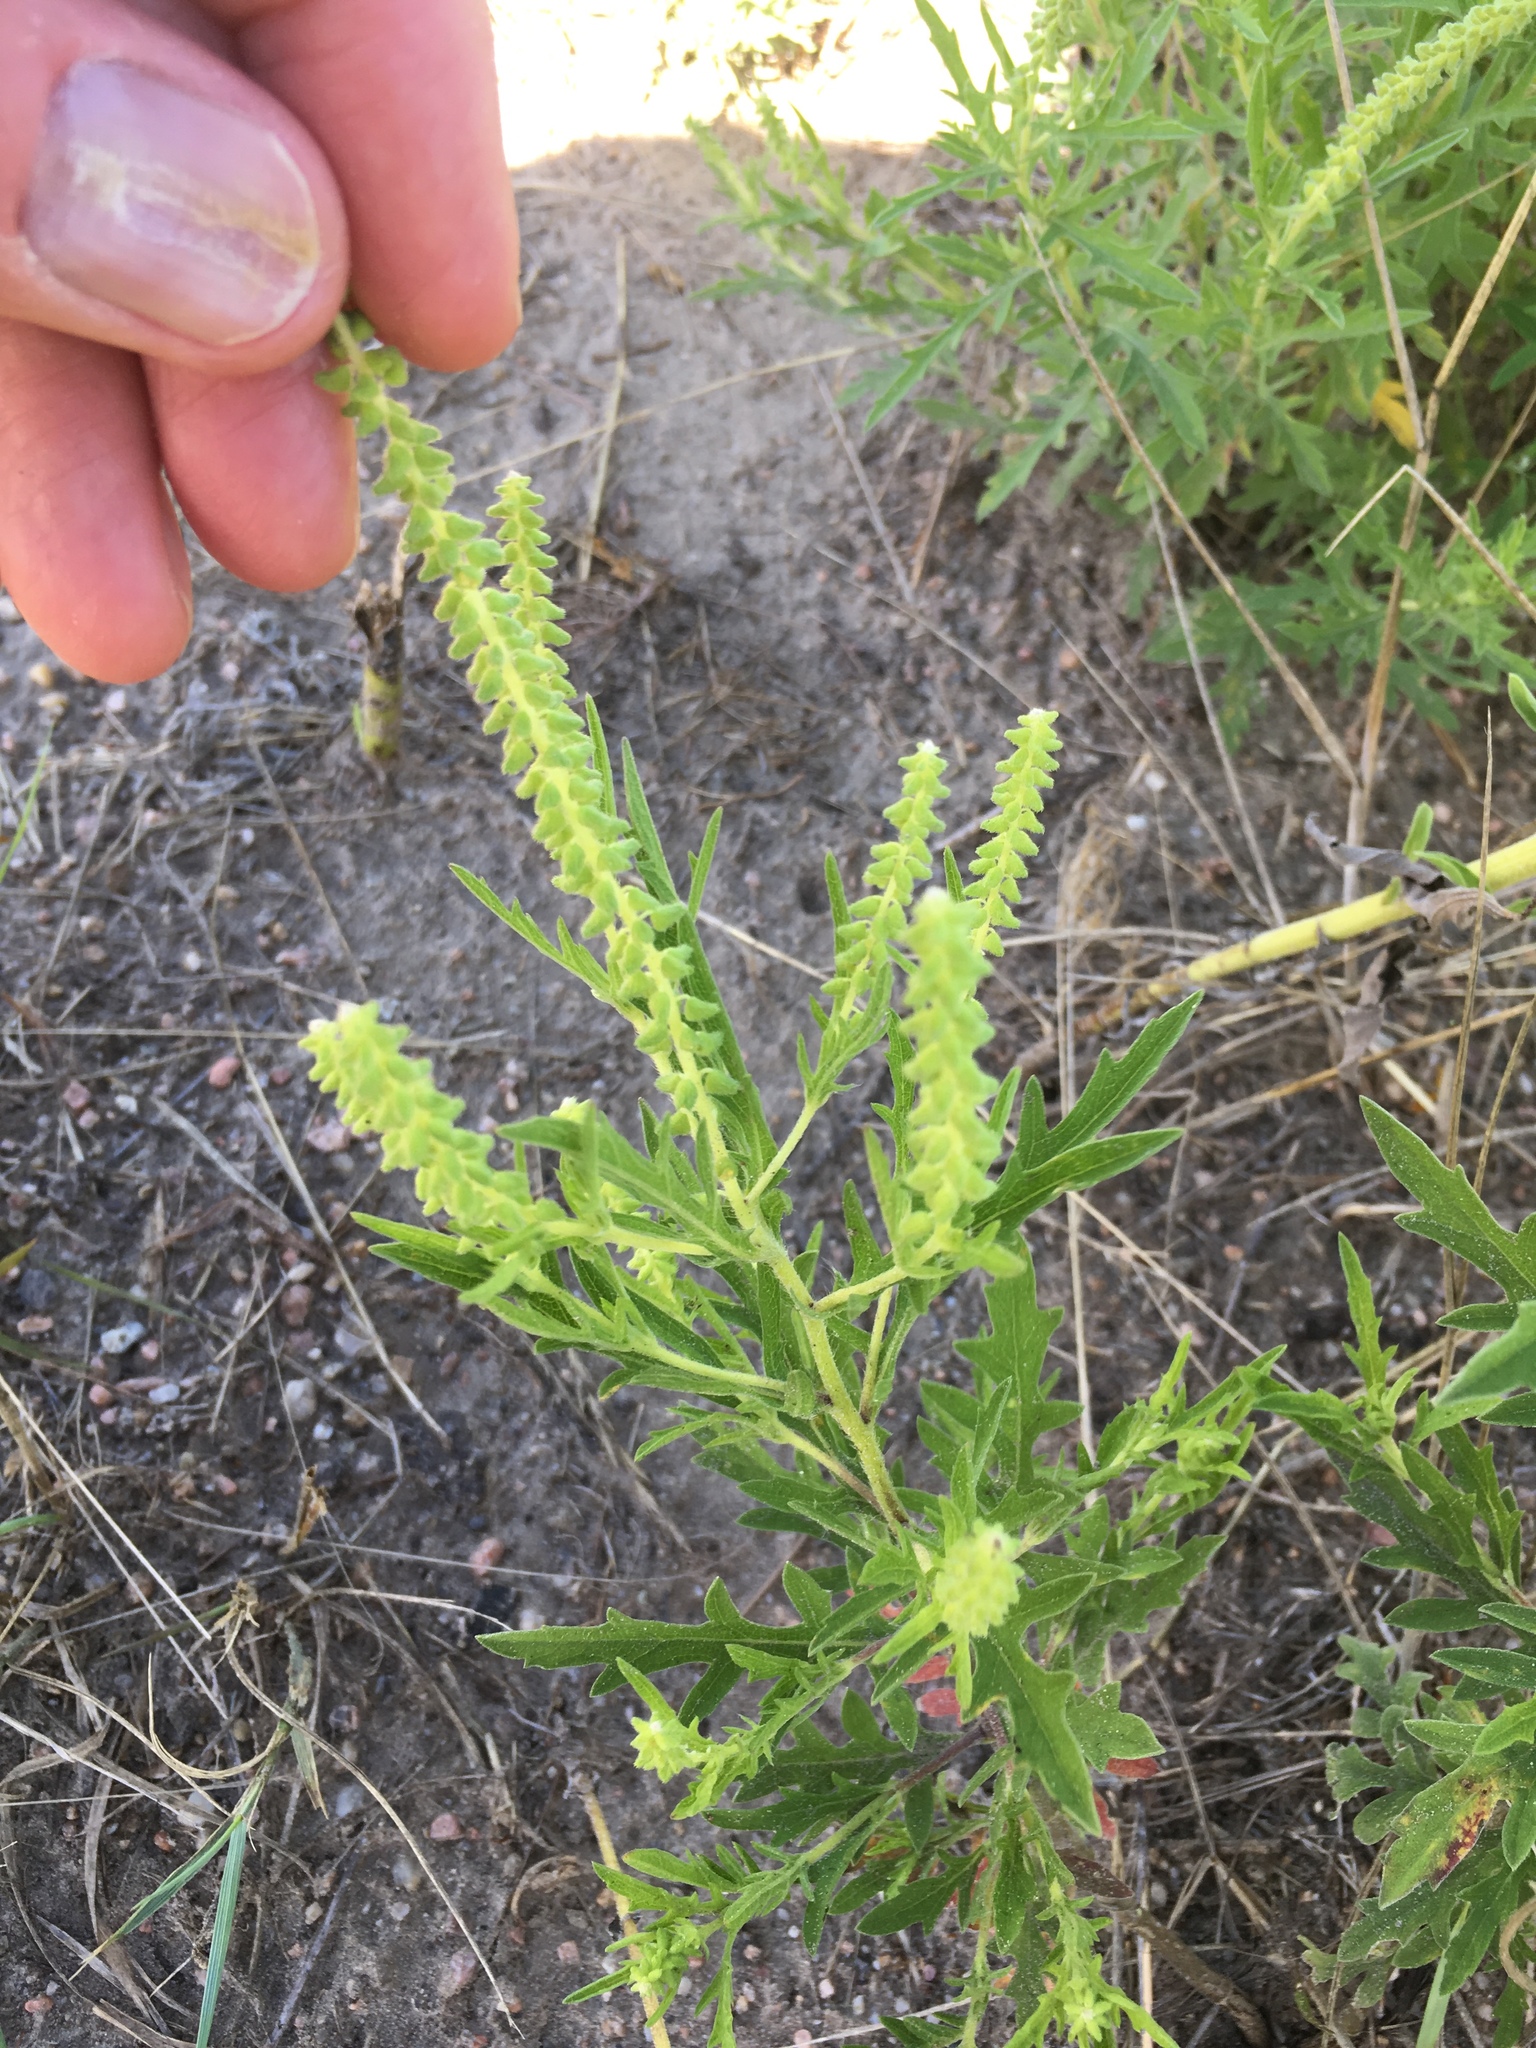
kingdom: Plantae
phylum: Tracheophyta
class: Magnoliopsida
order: Asterales
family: Asteraceae
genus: Ambrosia
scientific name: Ambrosia psilostachya
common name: Perennial ragweed
